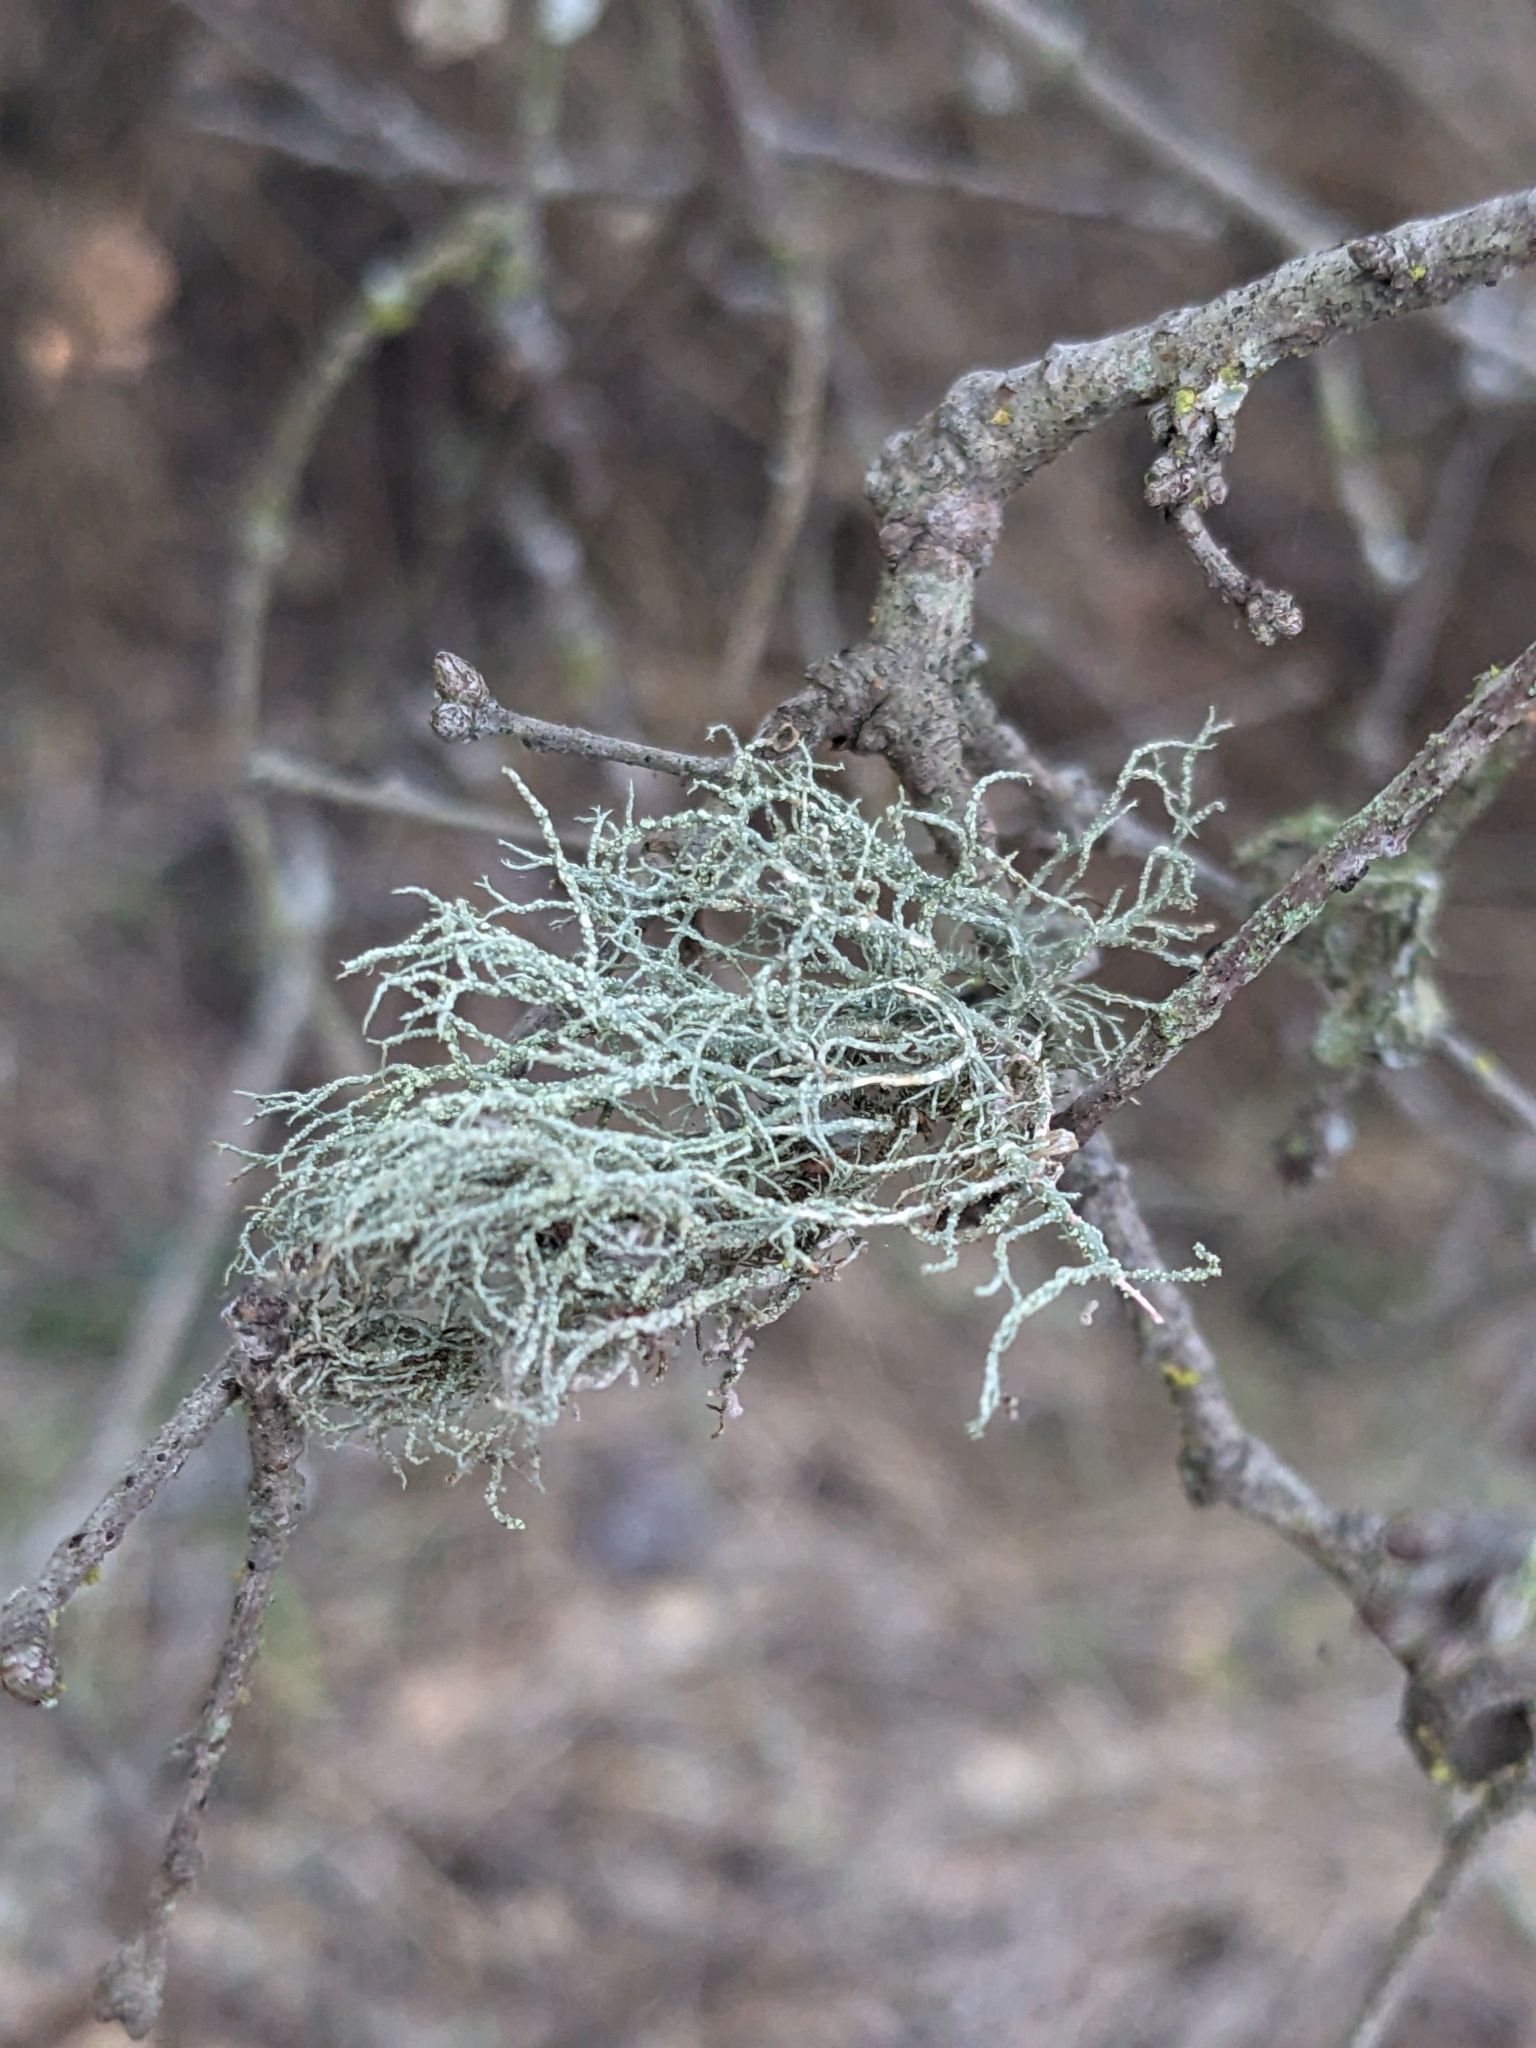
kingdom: Fungi
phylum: Ascomycota
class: Lecanoromycetes
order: Lecanorales
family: Parmeliaceae
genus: Usnea
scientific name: Usnea ceratina
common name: Warty beard lichen
